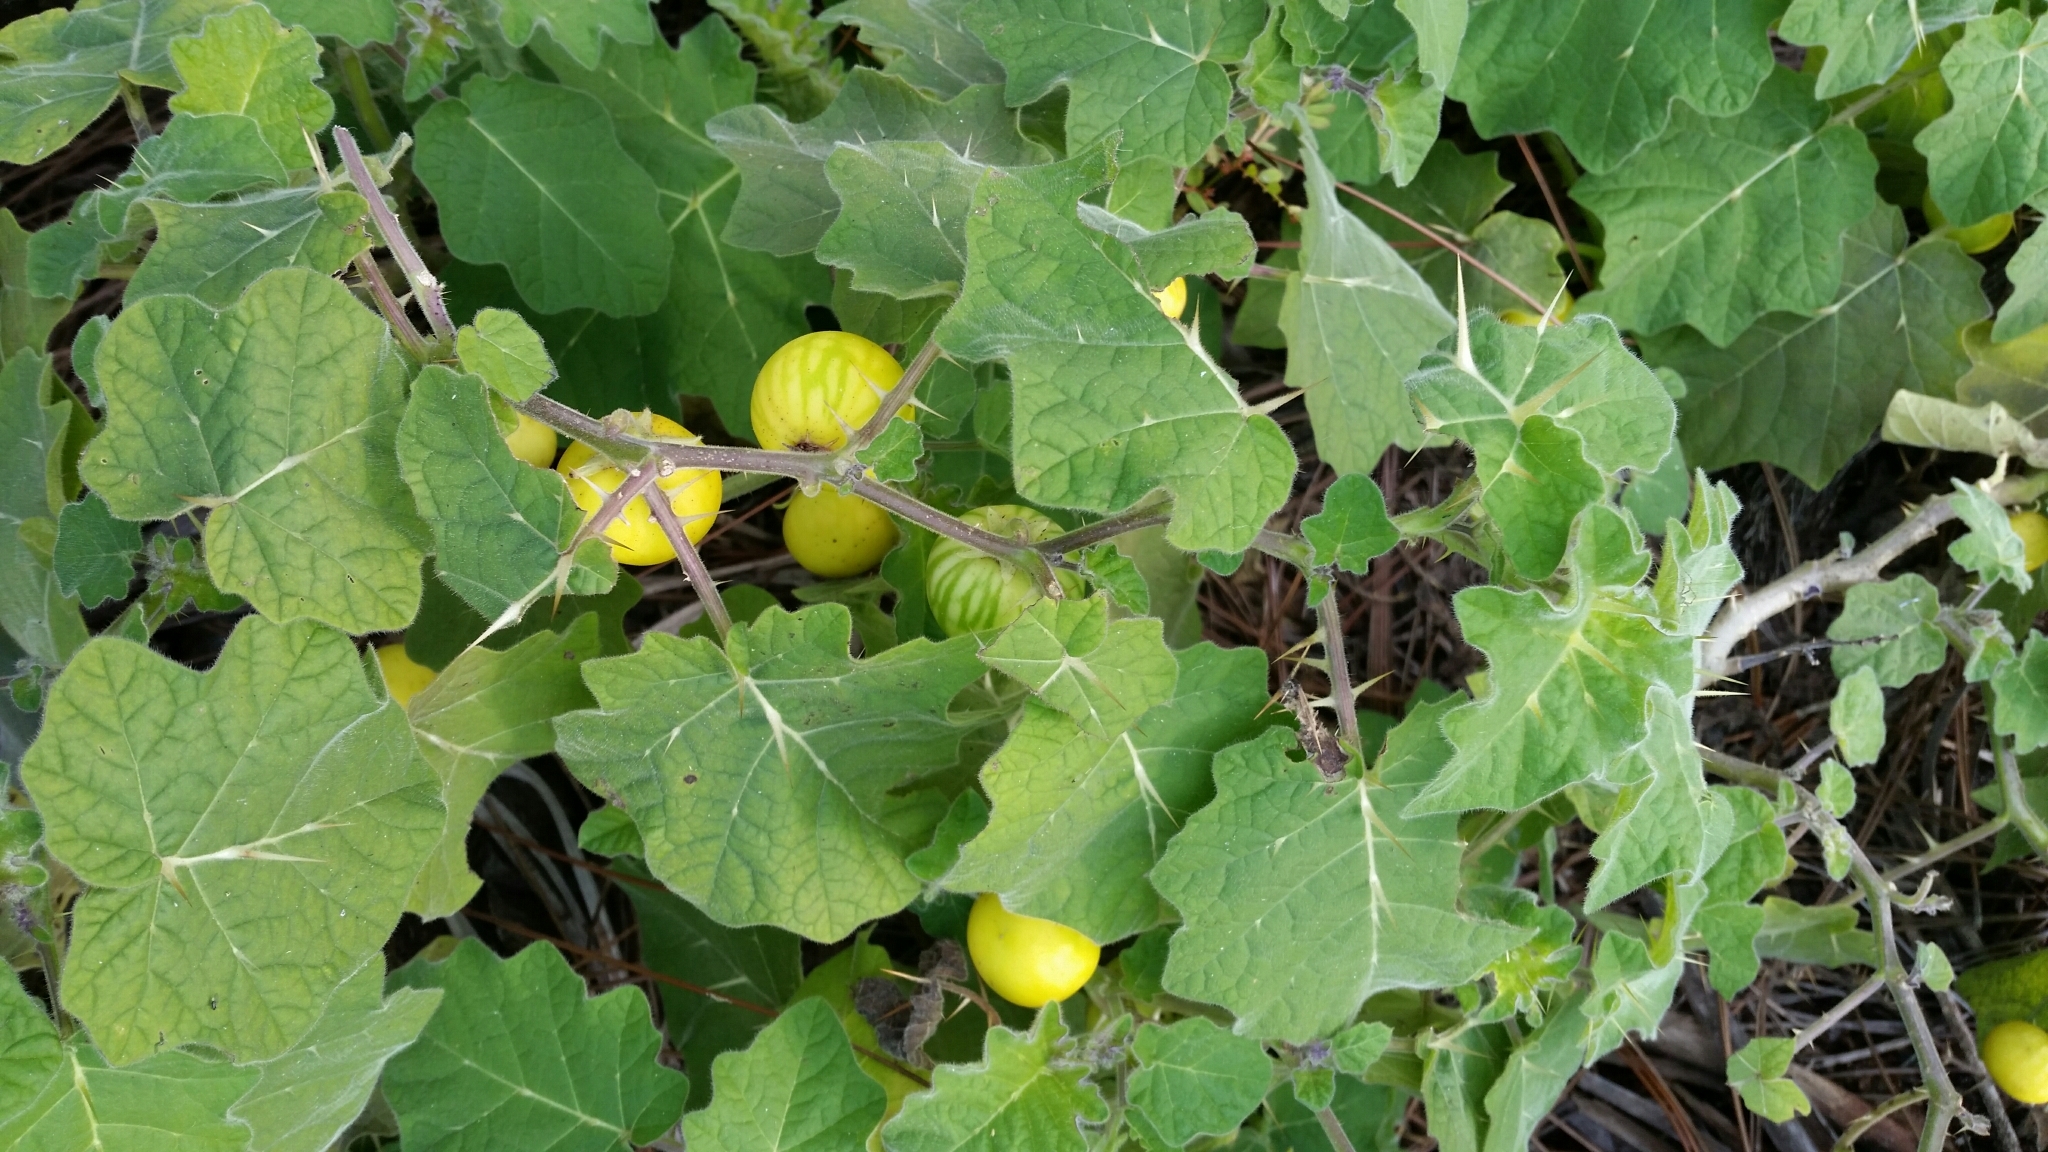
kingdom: Plantae
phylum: Tracheophyta
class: Magnoliopsida
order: Solanales
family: Solanaceae
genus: Solanum
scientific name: Solanum viarum
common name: Tropical soda apple
